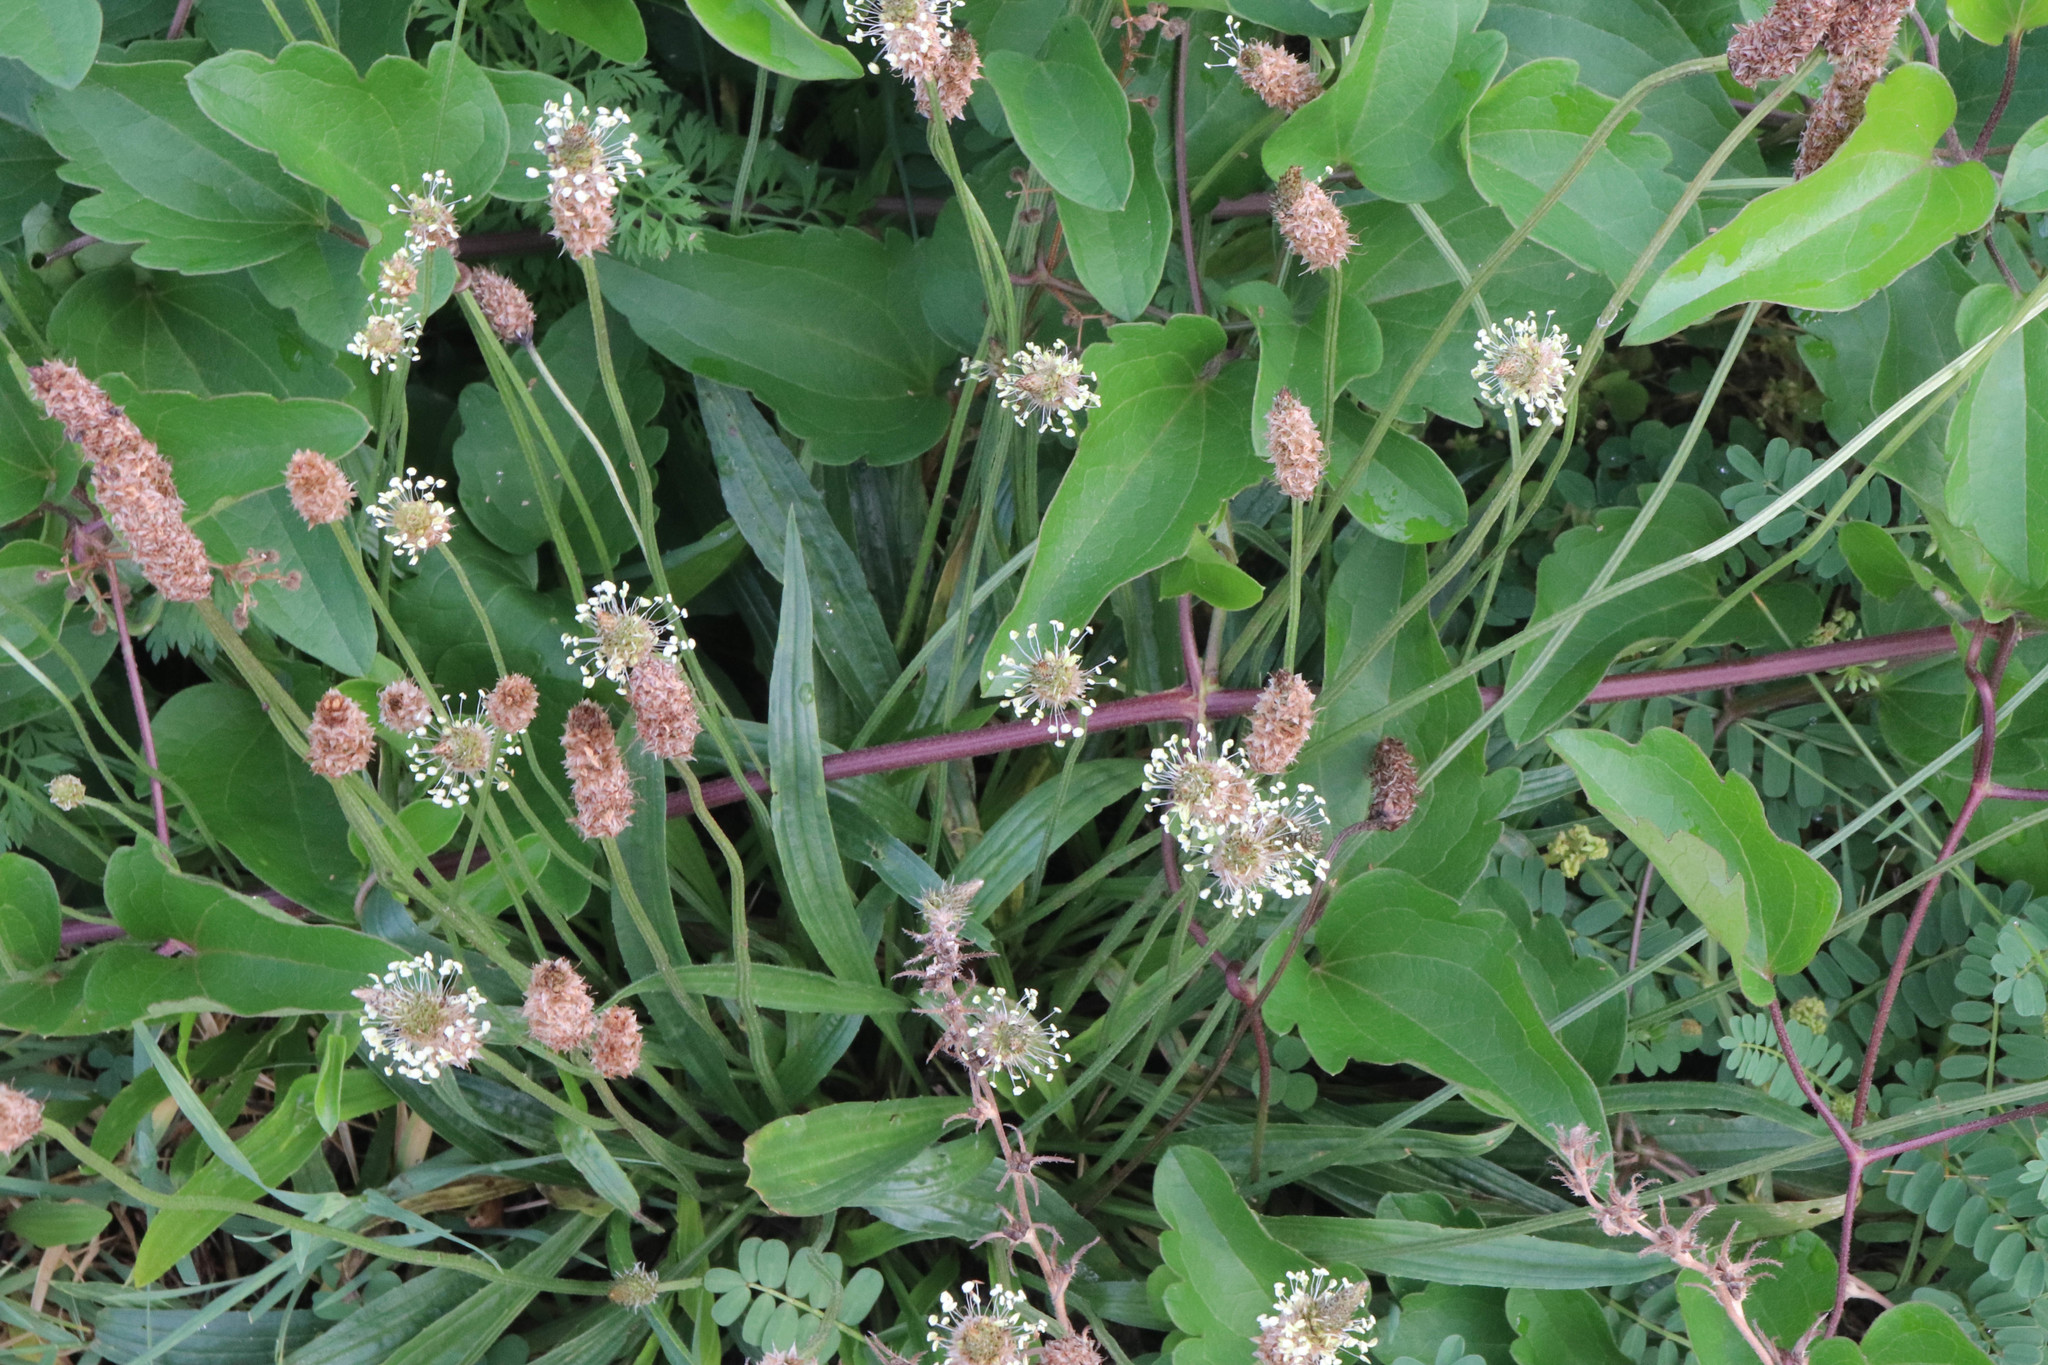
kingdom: Plantae
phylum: Tracheophyta
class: Magnoliopsida
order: Lamiales
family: Plantaginaceae
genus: Plantago
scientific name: Plantago lanceolata
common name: Ribwort plantain
